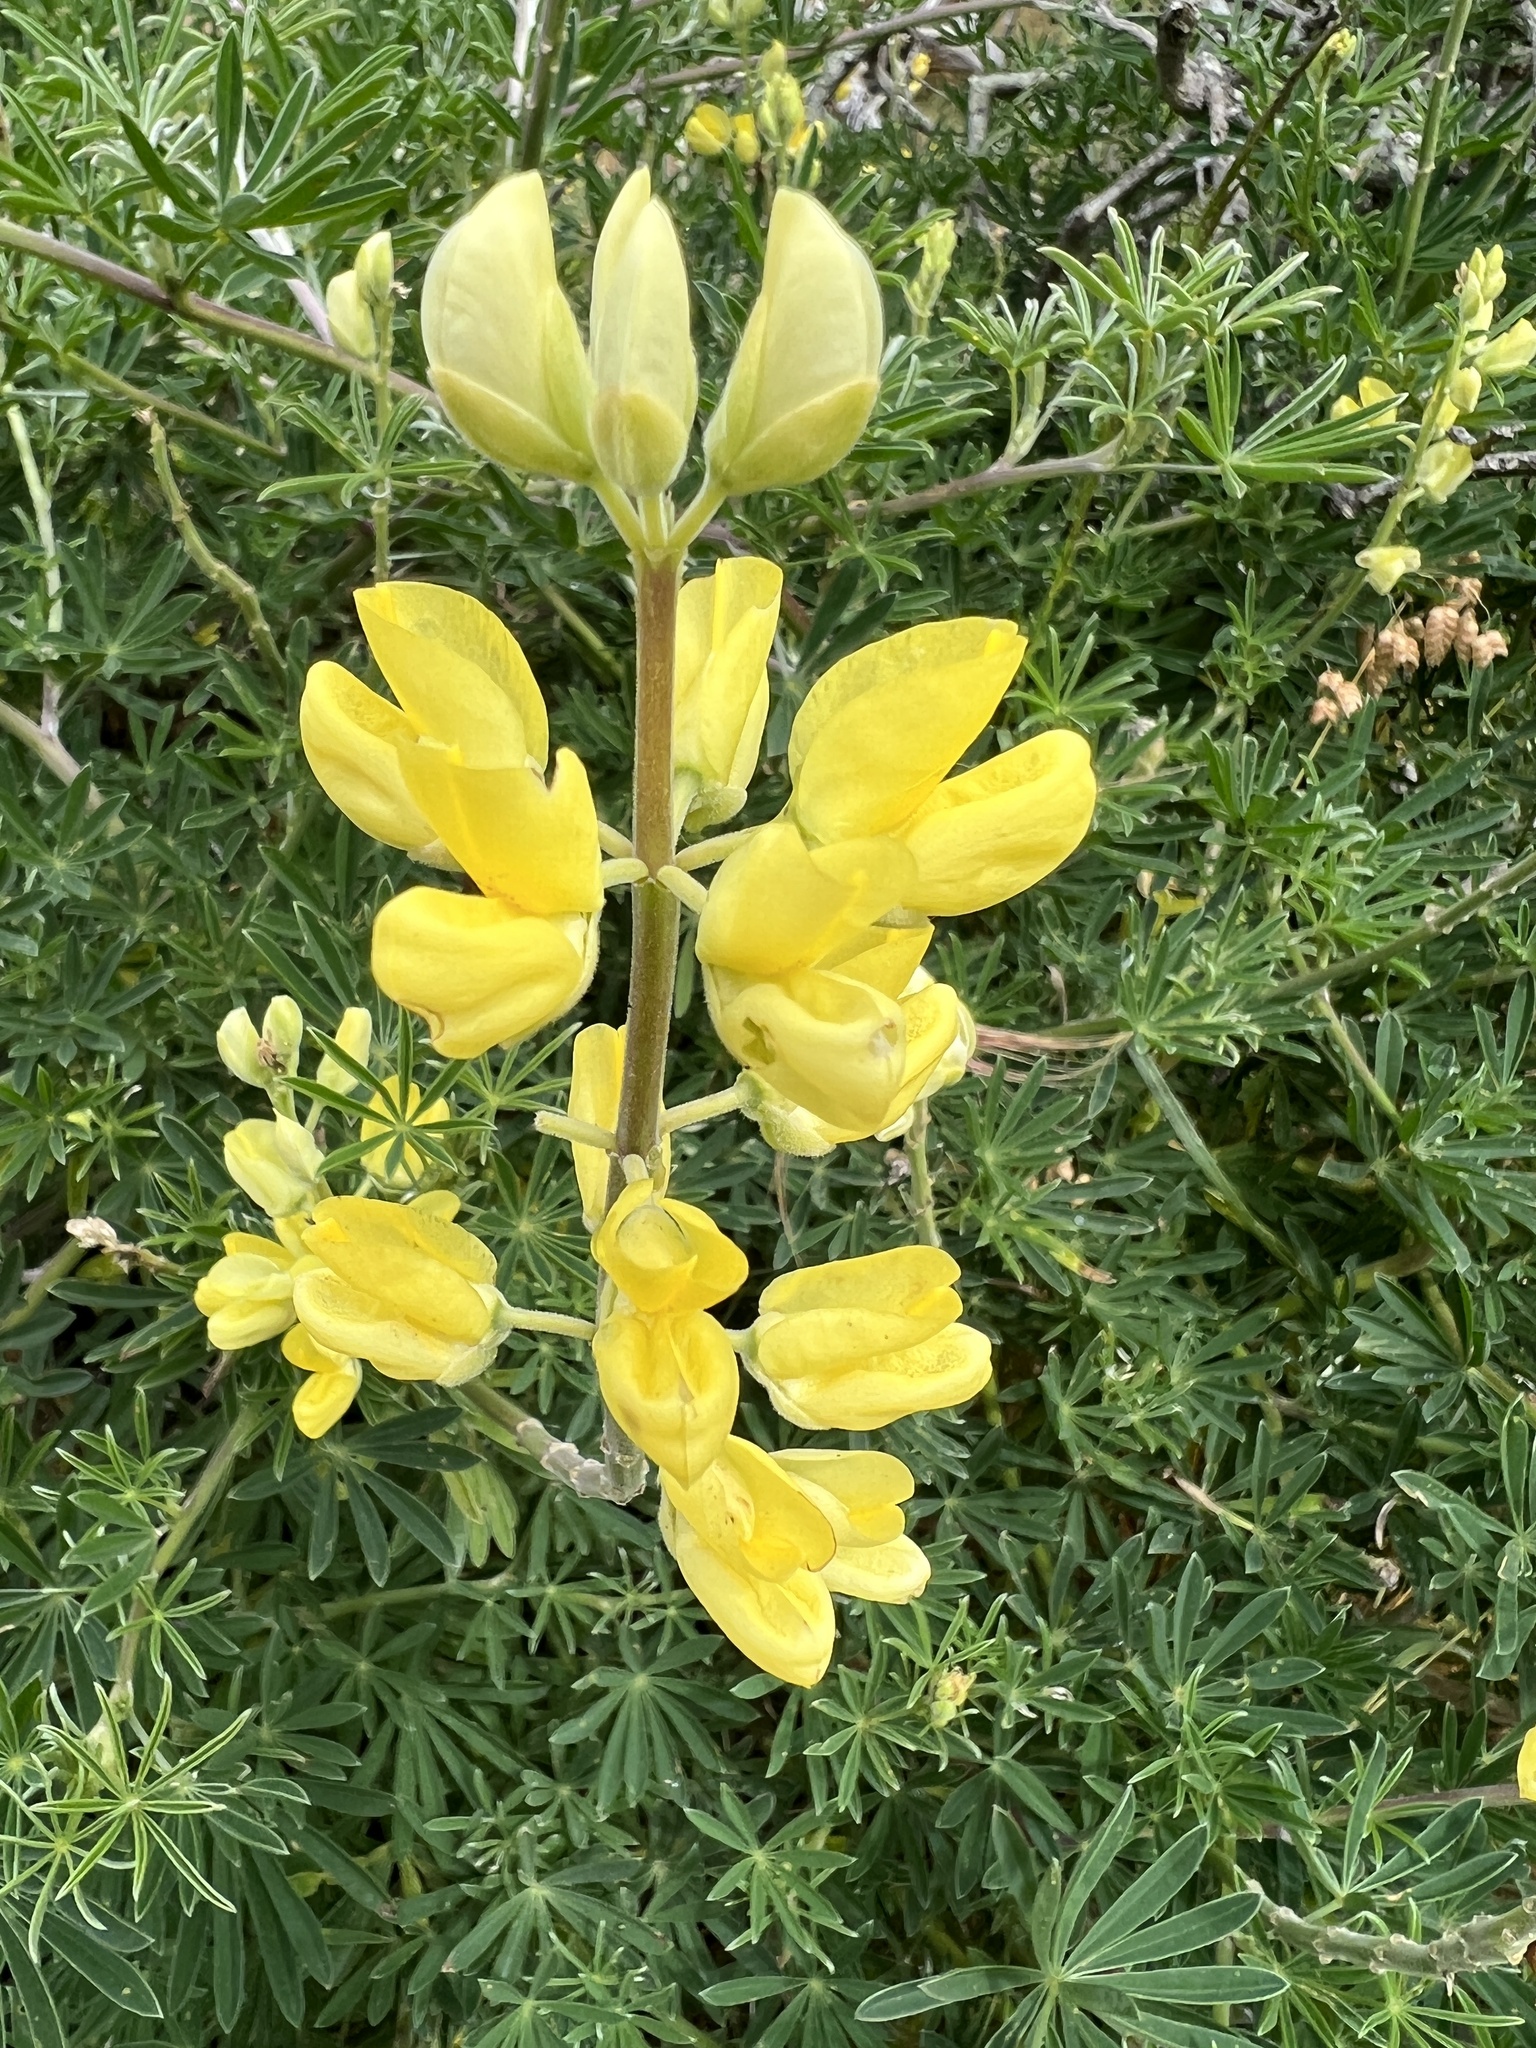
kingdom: Plantae
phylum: Tracheophyta
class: Magnoliopsida
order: Fabales
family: Fabaceae
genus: Lupinus
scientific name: Lupinus arboreus
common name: Yellow bush lupine
